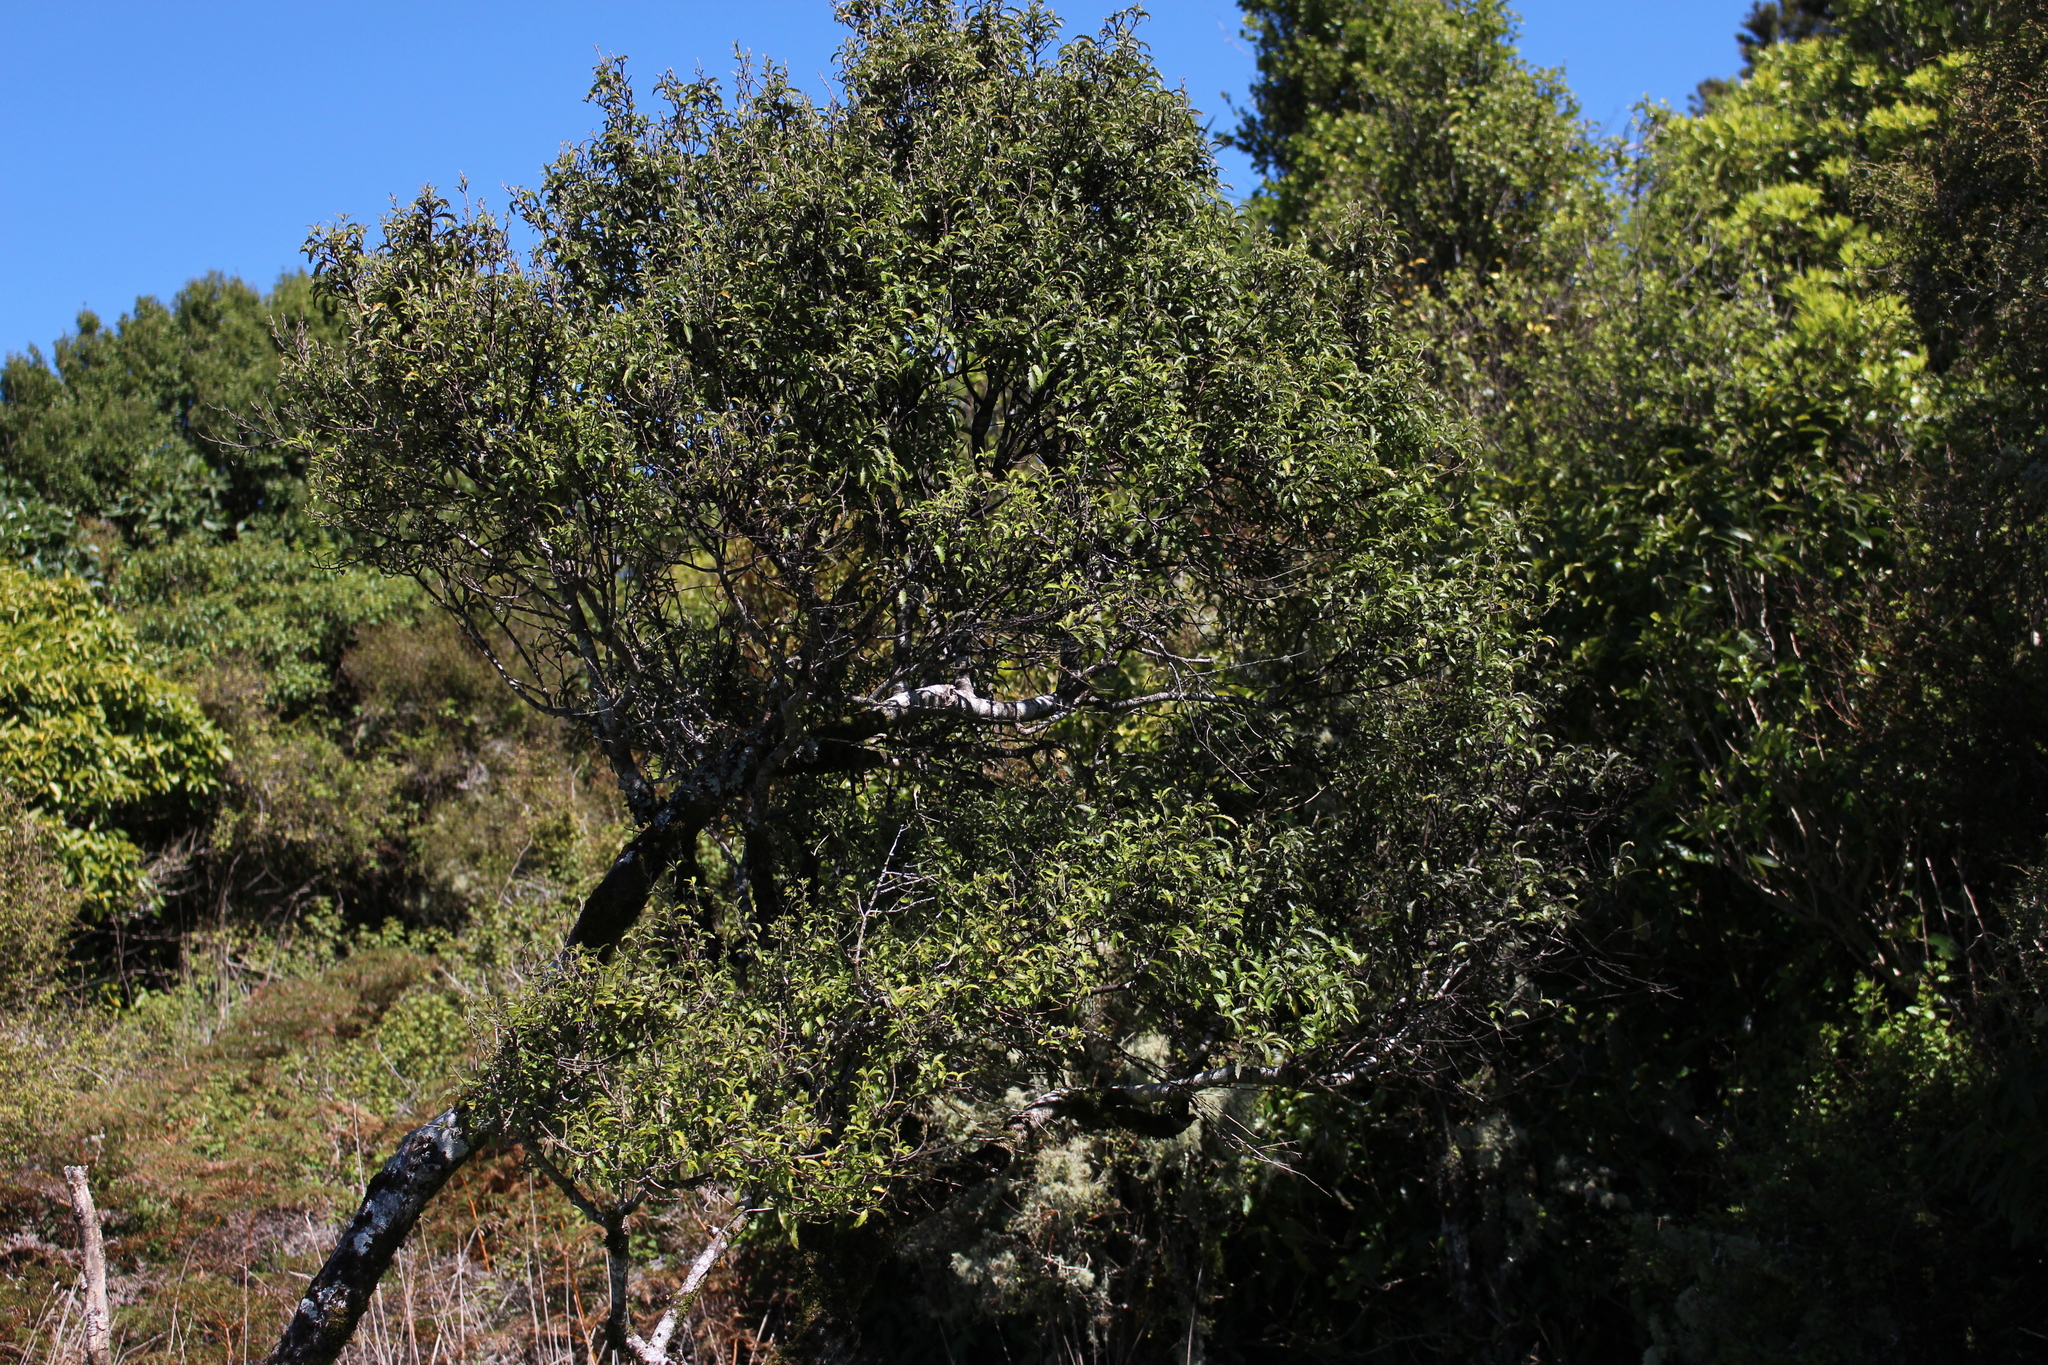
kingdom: Plantae
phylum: Tracheophyta
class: Magnoliopsida
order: Malvales
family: Malvaceae
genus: Hoheria
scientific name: Hoheria angustifolia
